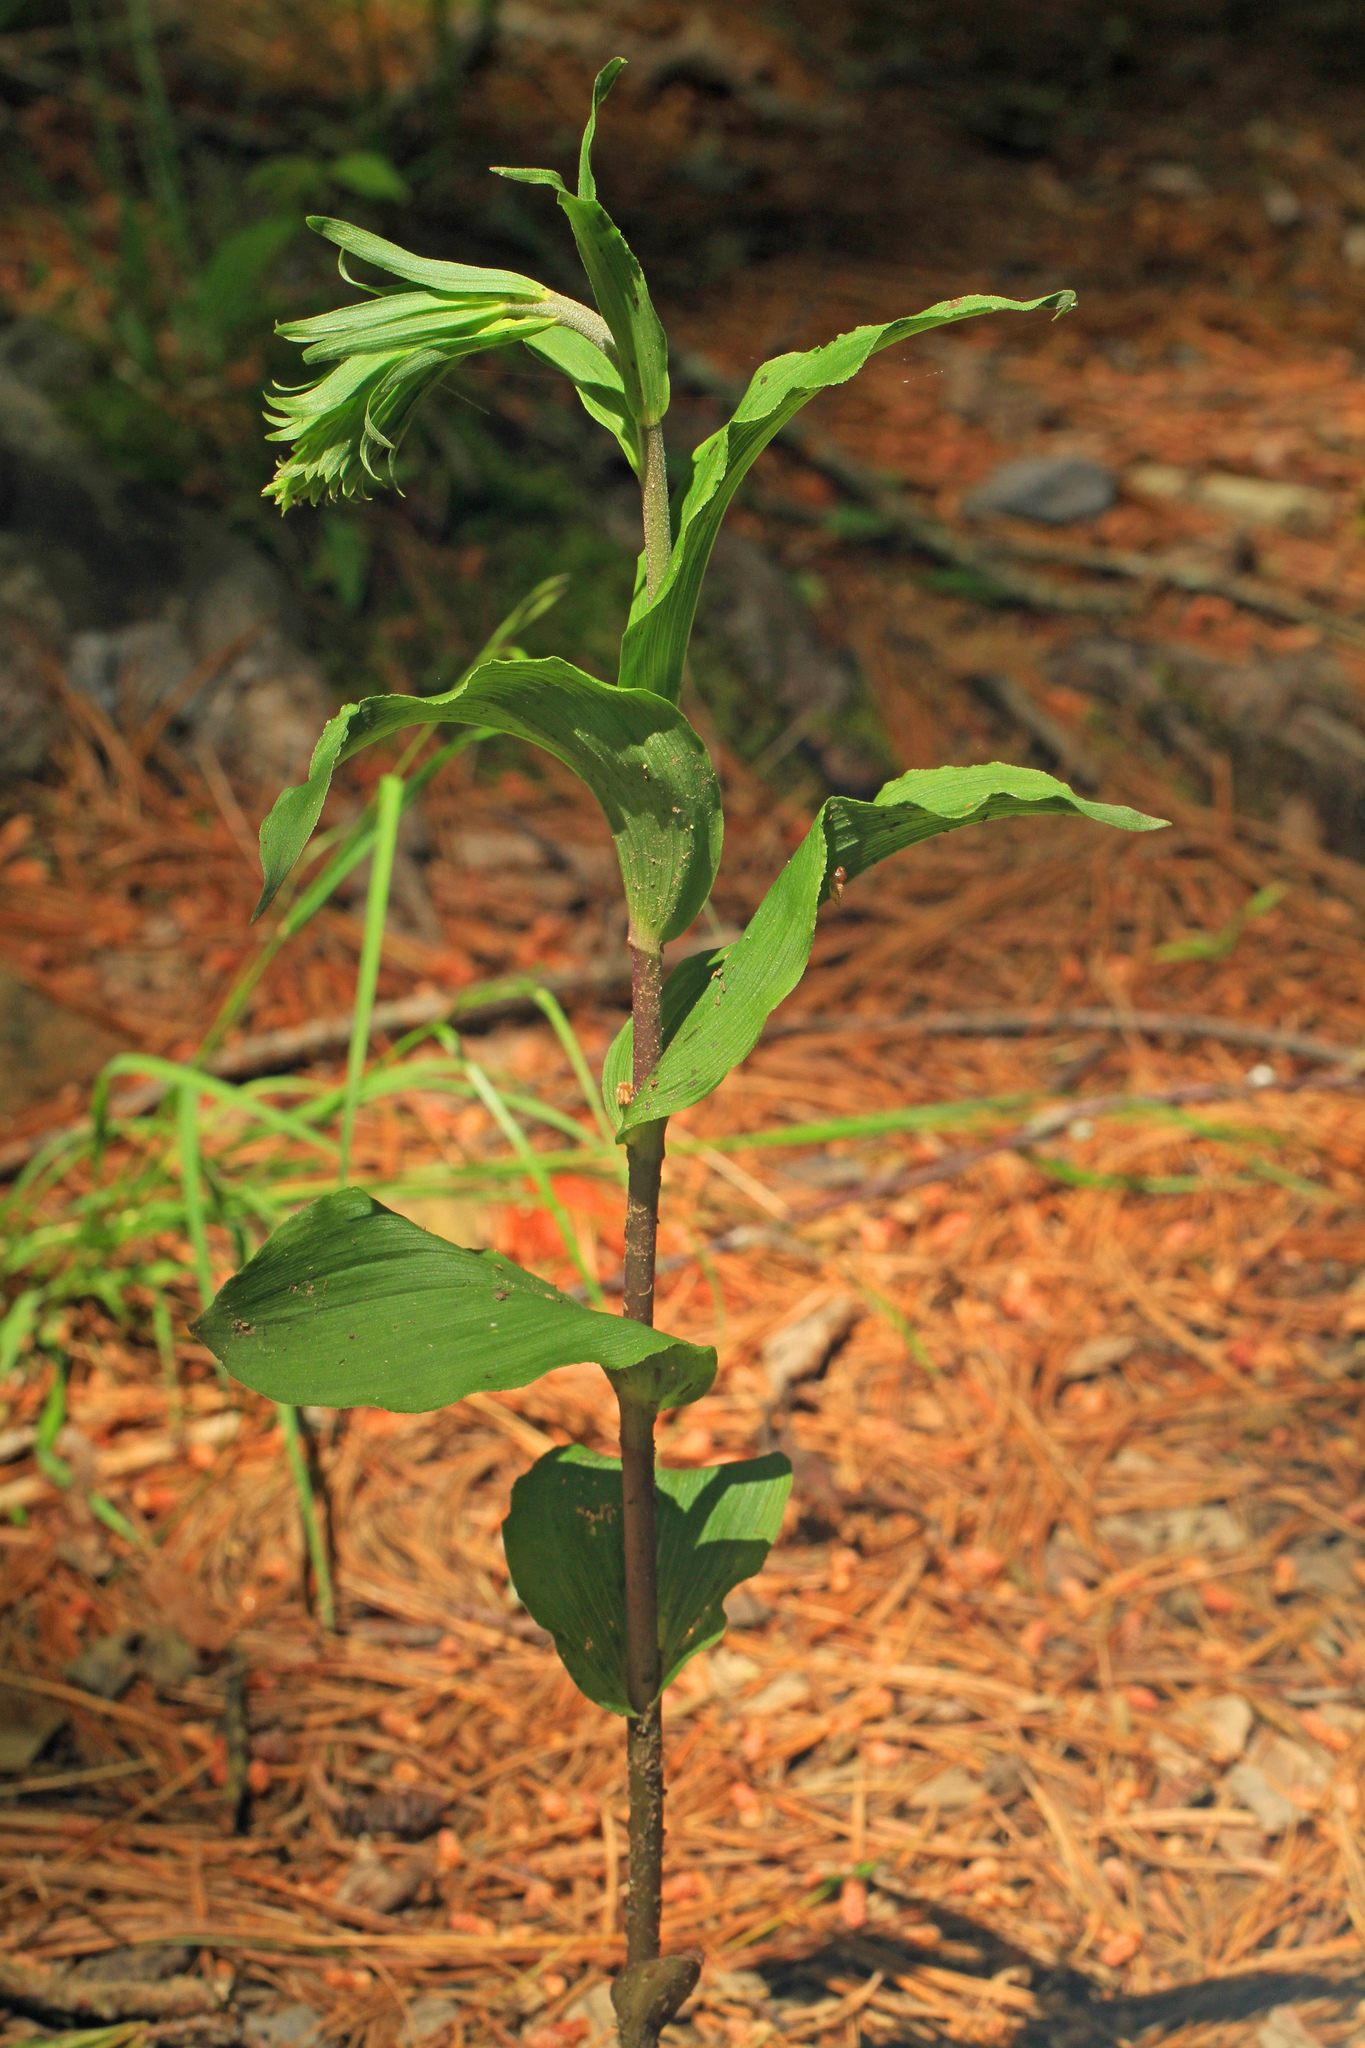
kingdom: Plantae
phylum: Tracheophyta
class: Liliopsida
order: Asparagales
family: Orchidaceae
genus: Epipactis
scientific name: Epipactis helleborine
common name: Broad-leaved helleborine
